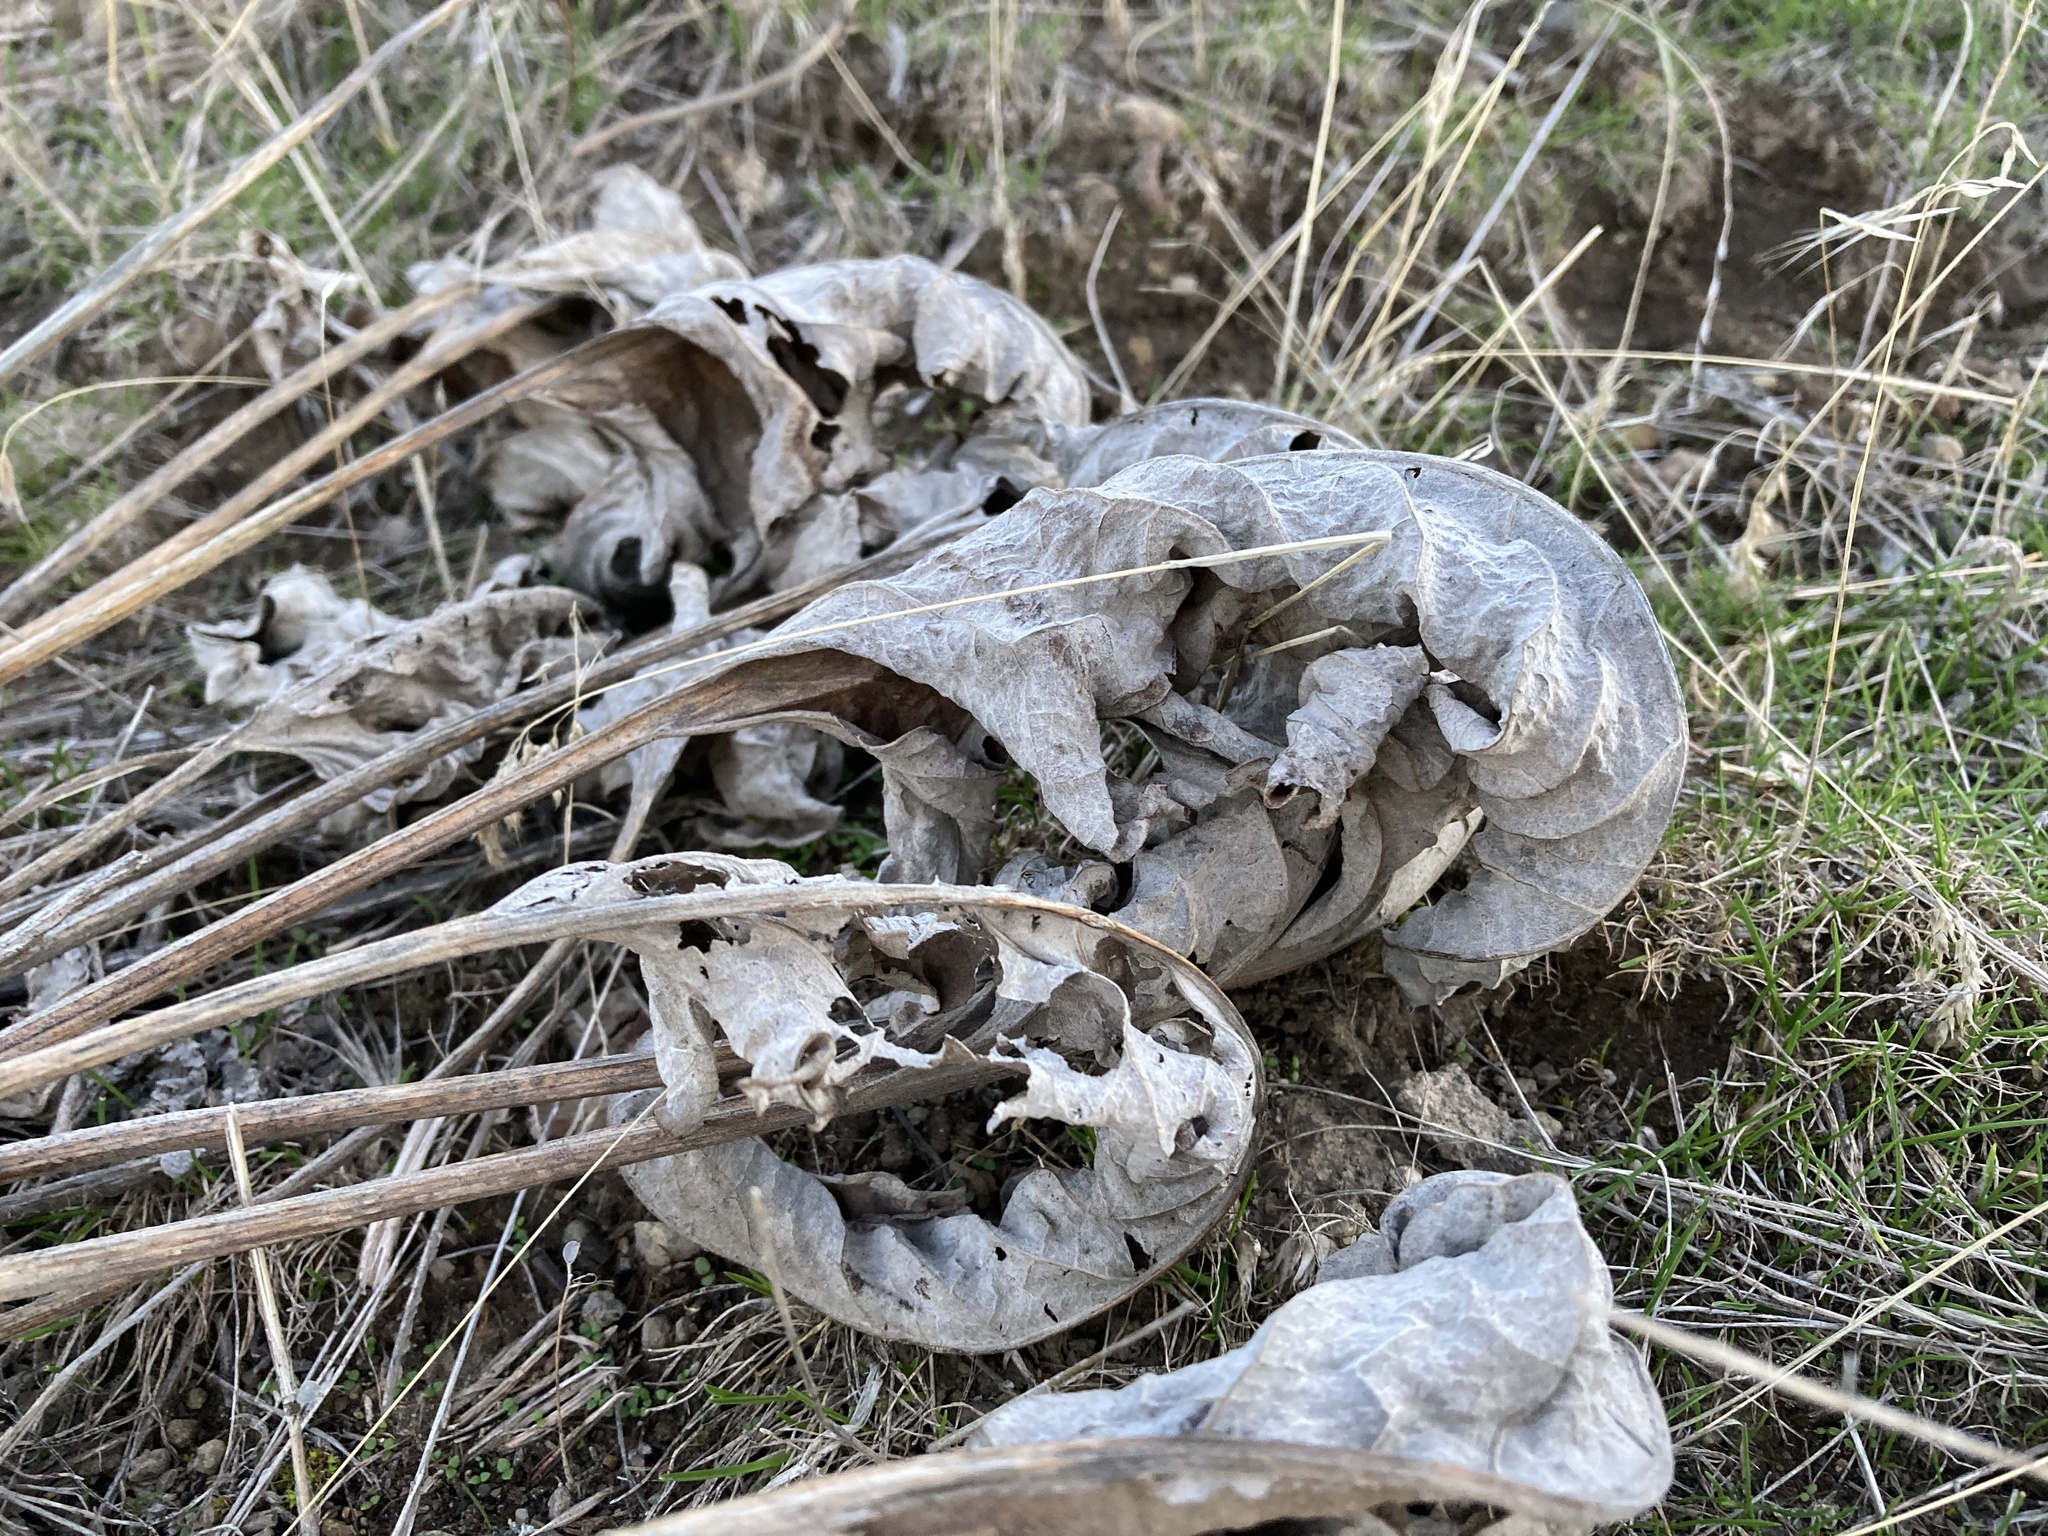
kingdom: Plantae
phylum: Tracheophyta
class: Magnoliopsida
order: Asterales
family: Asteraceae
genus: Wyethia
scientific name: Wyethia sagittata
